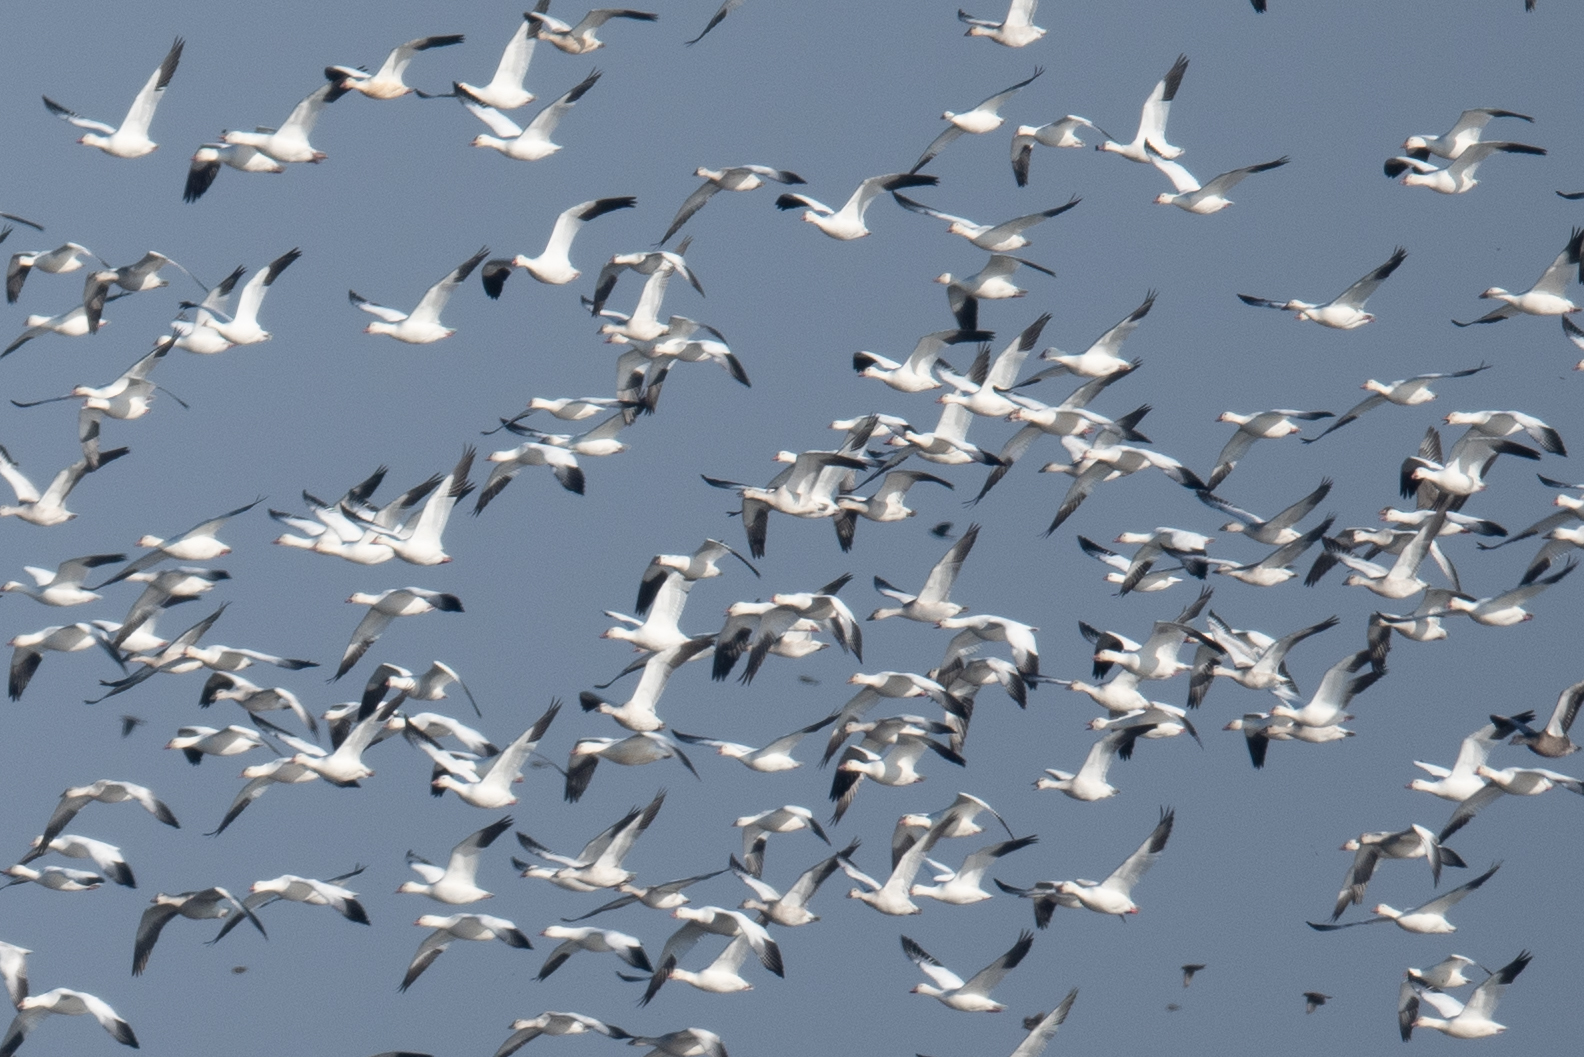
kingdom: Animalia
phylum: Chordata
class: Aves
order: Anseriformes
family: Anatidae
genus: Anser
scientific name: Anser caerulescens
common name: Snow goose
